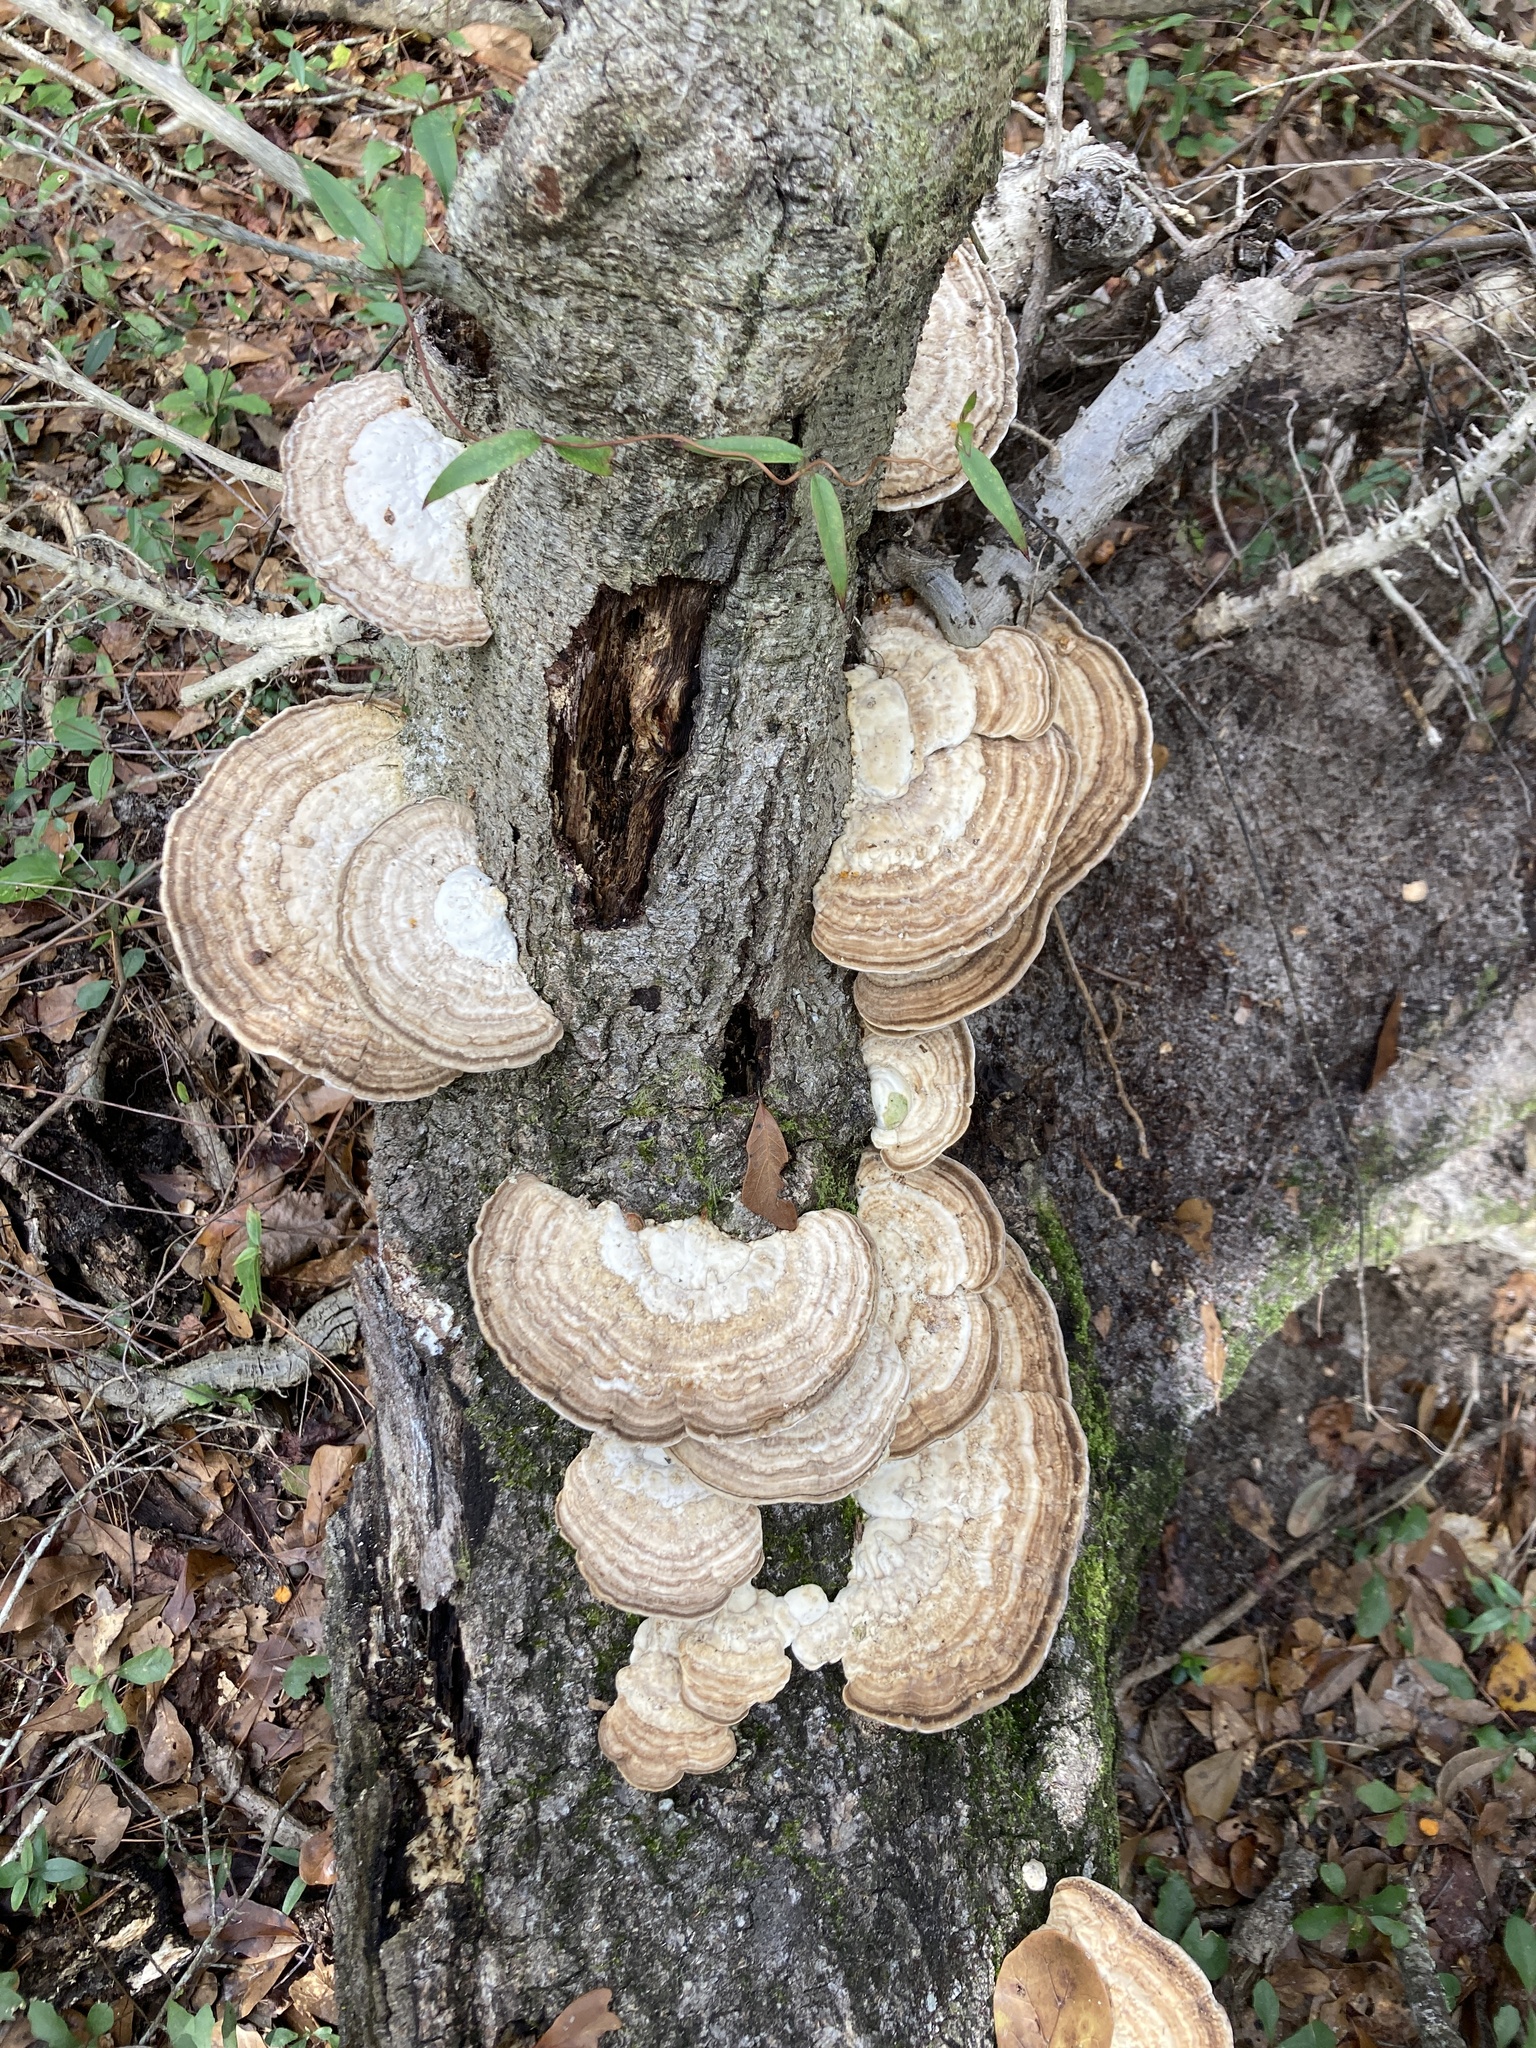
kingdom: Fungi
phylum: Basidiomycota
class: Agaricomycetes
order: Polyporales
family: Polyporaceae
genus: Trametes
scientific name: Trametes lactinea
